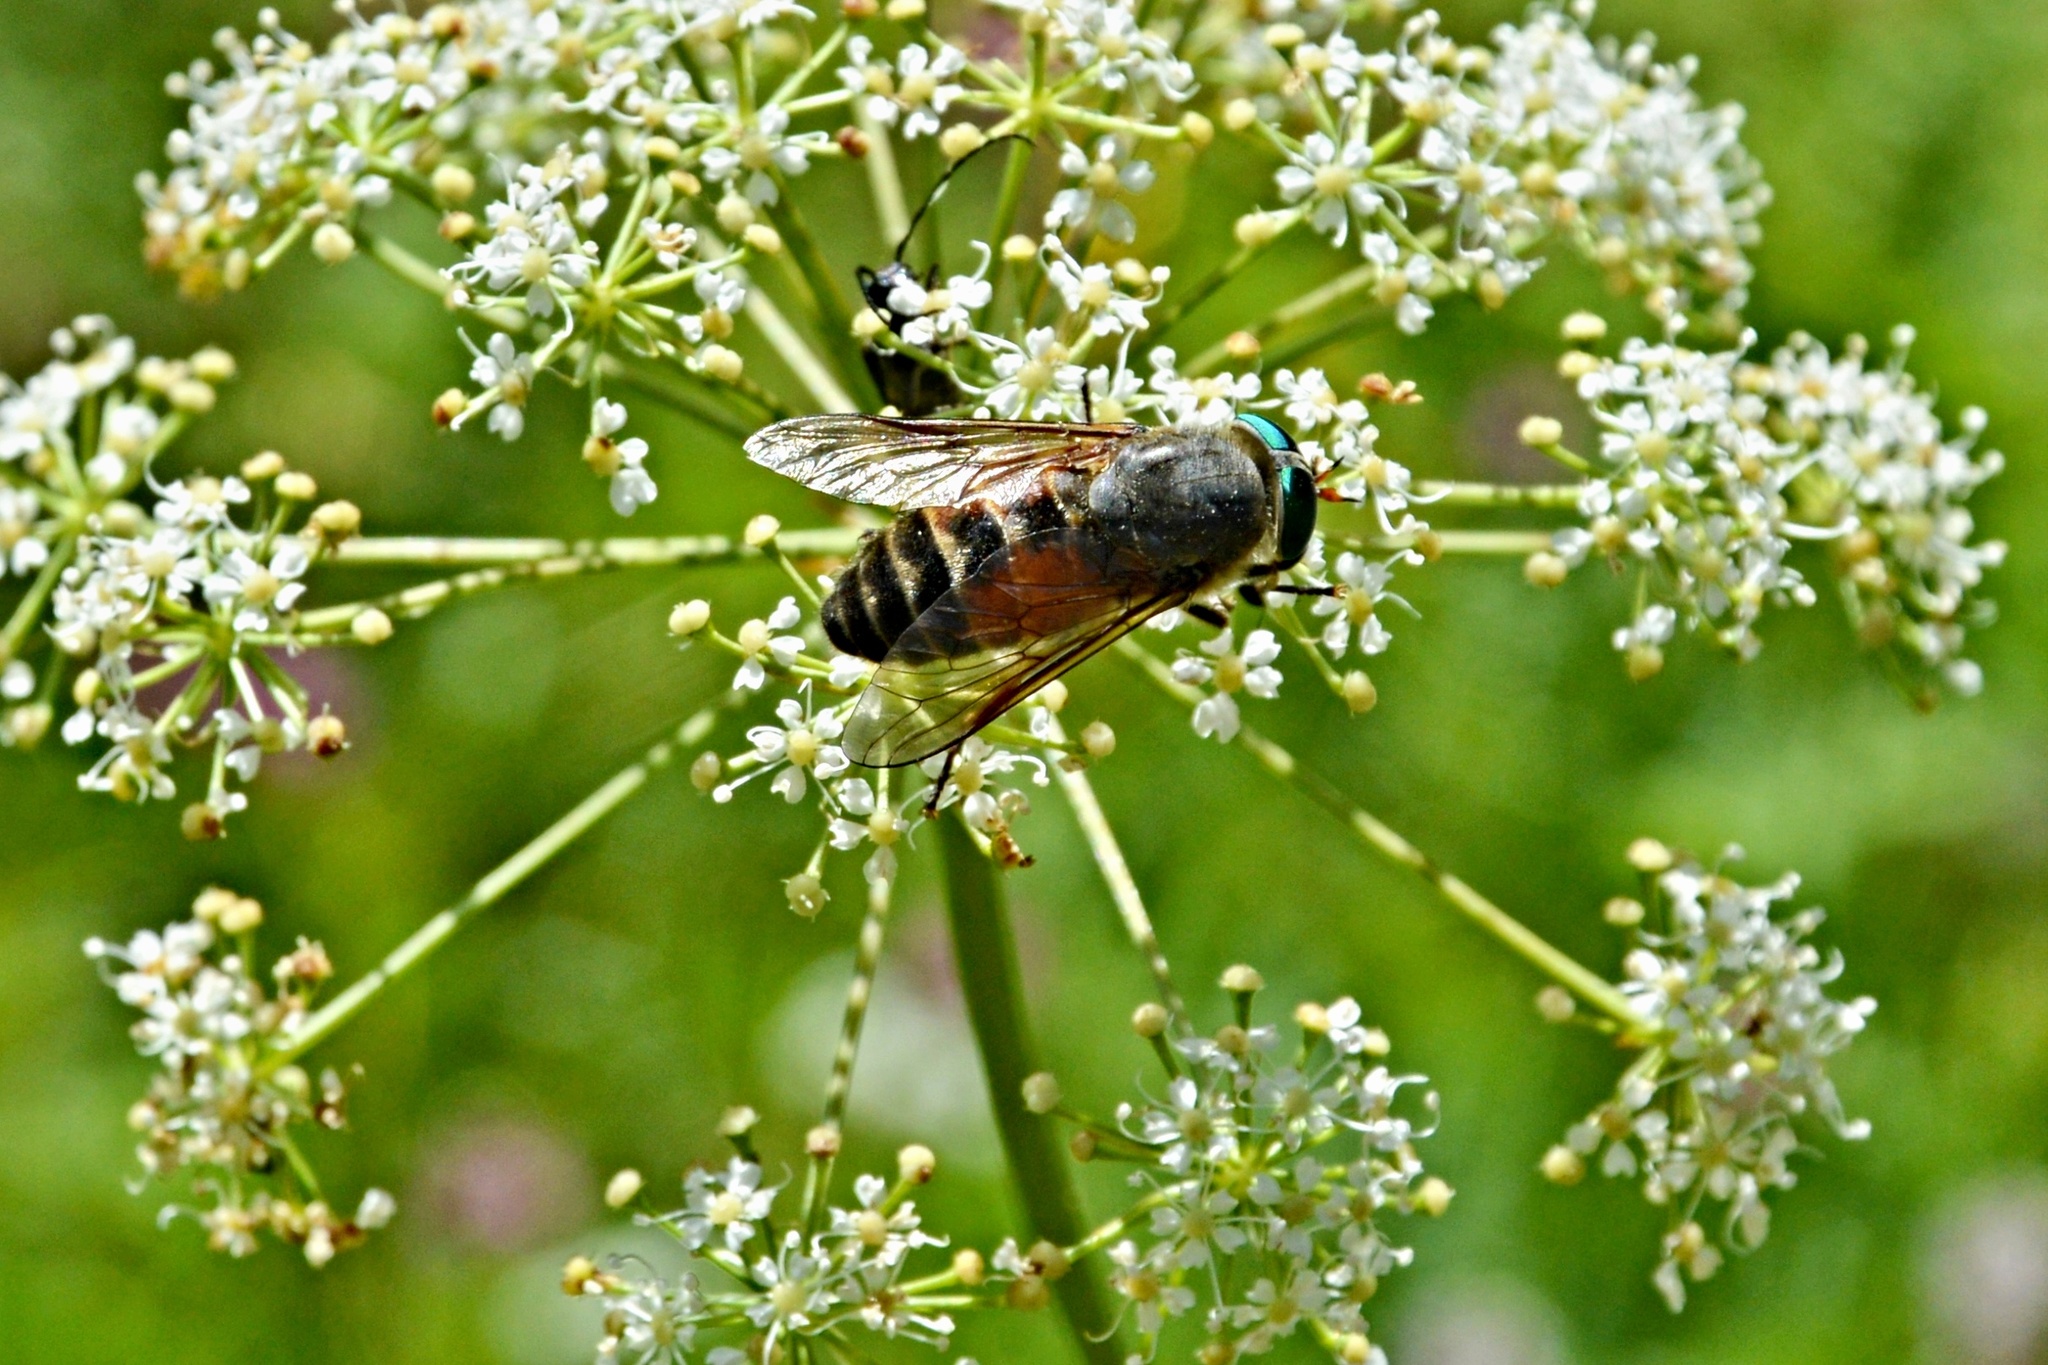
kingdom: Animalia
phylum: Arthropoda
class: Insecta
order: Diptera
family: Tabanidae
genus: Philipomyia
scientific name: Philipomyia aprica
